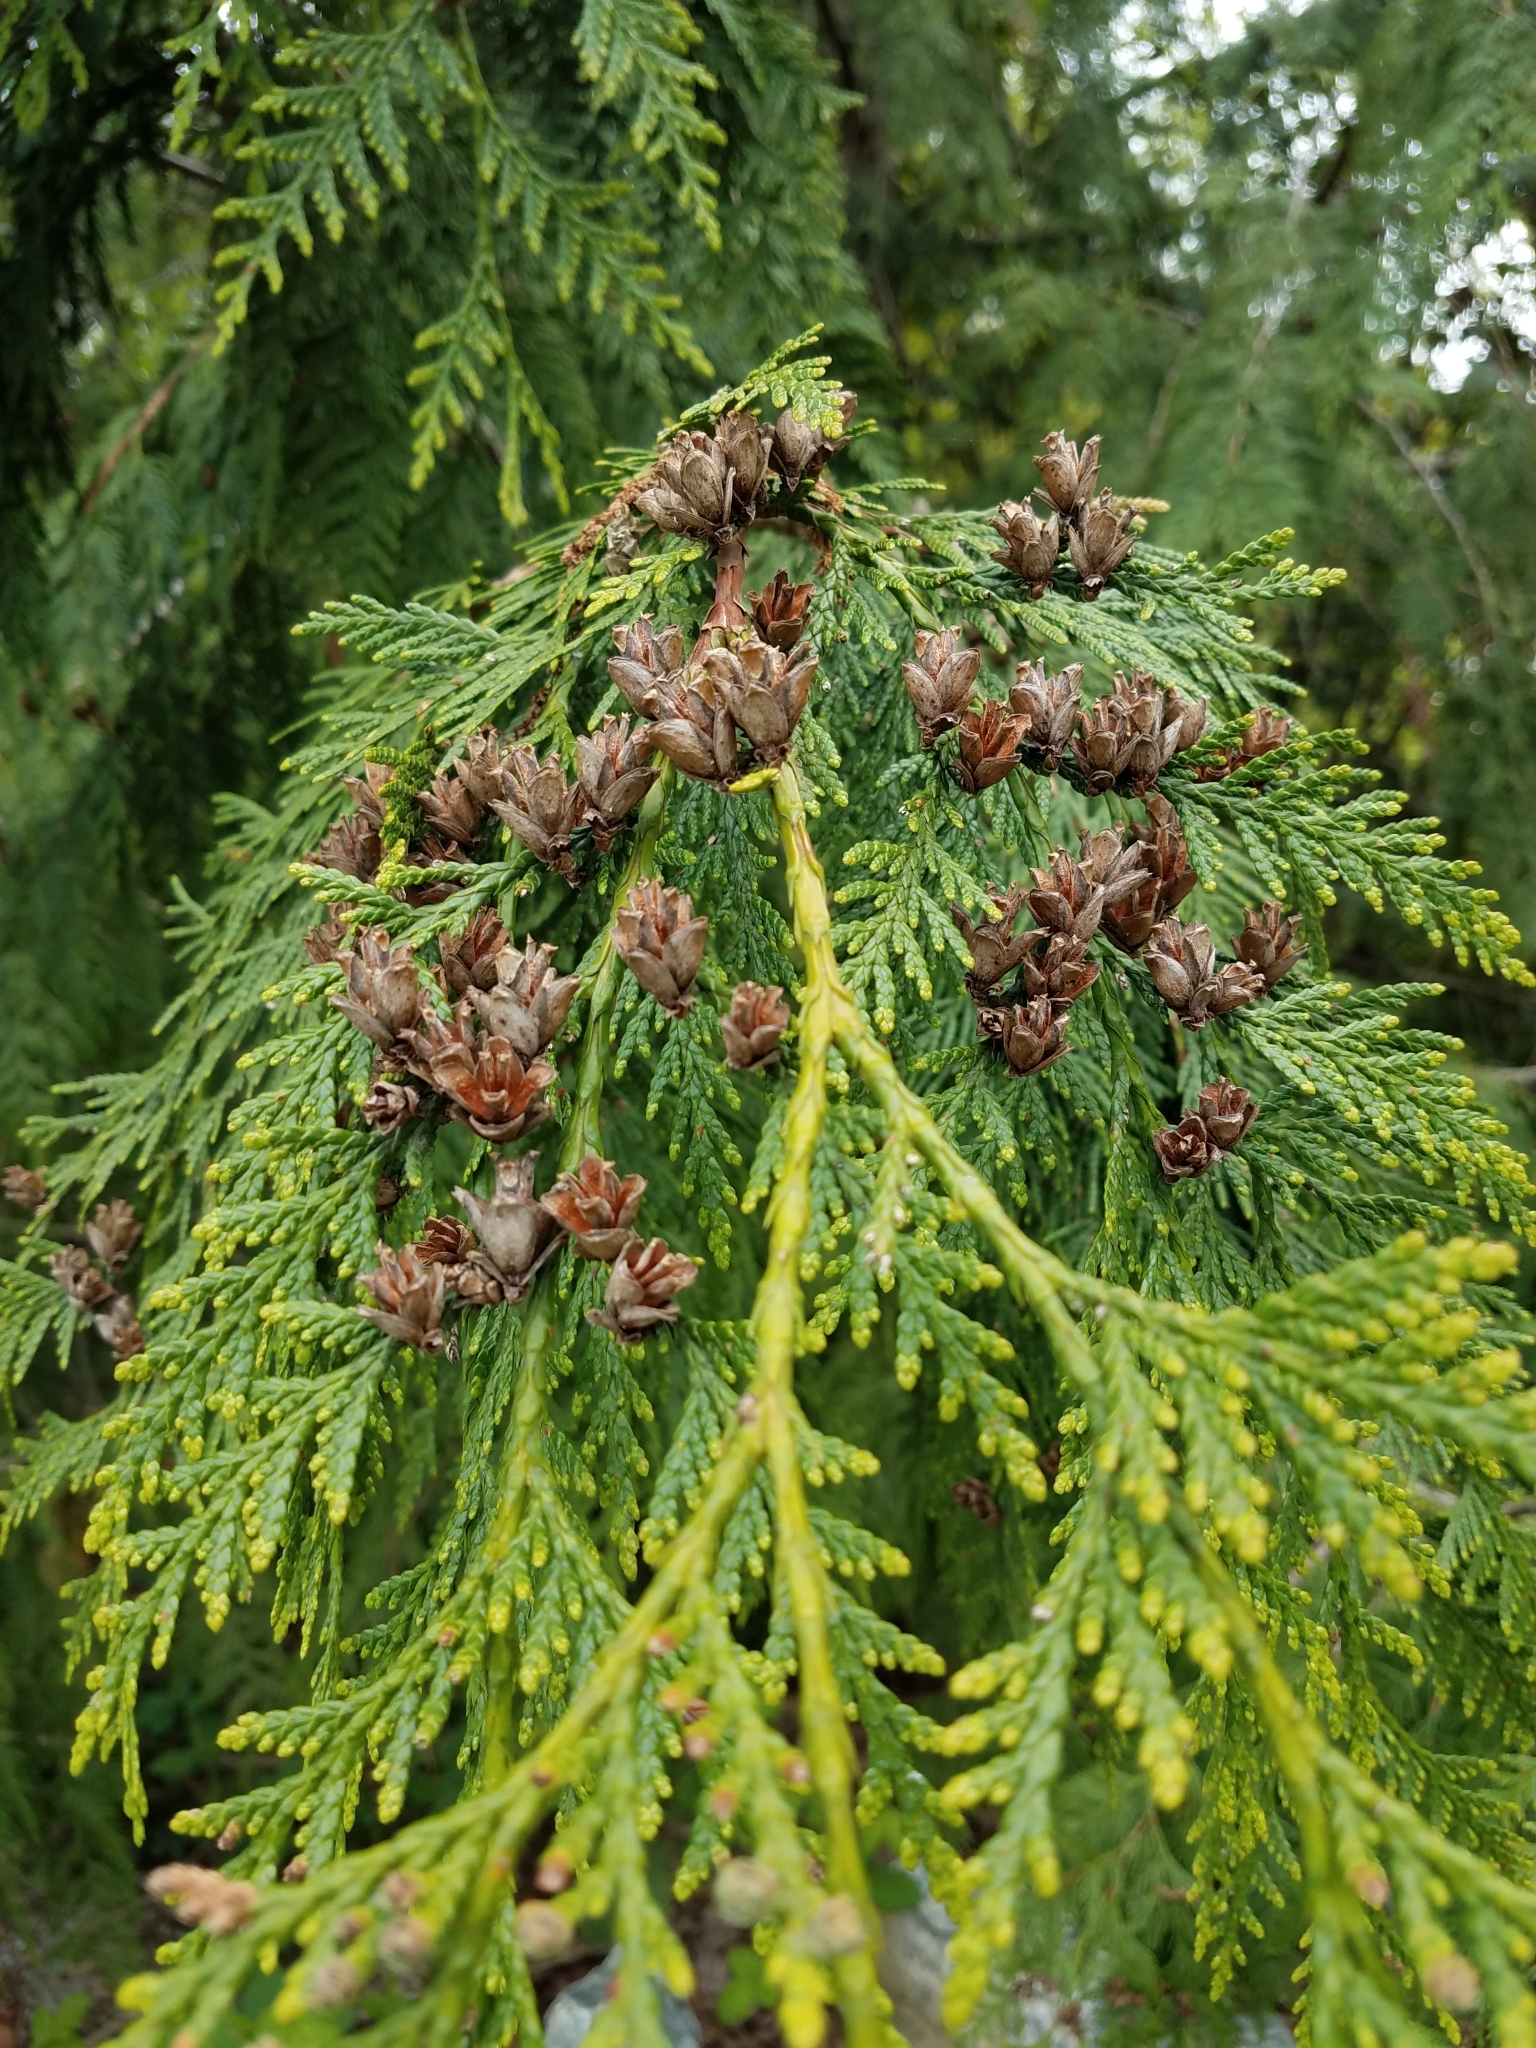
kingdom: Plantae
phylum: Tracheophyta
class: Pinopsida
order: Pinales
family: Cupressaceae
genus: Thuja
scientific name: Thuja plicata
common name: Western red-cedar
